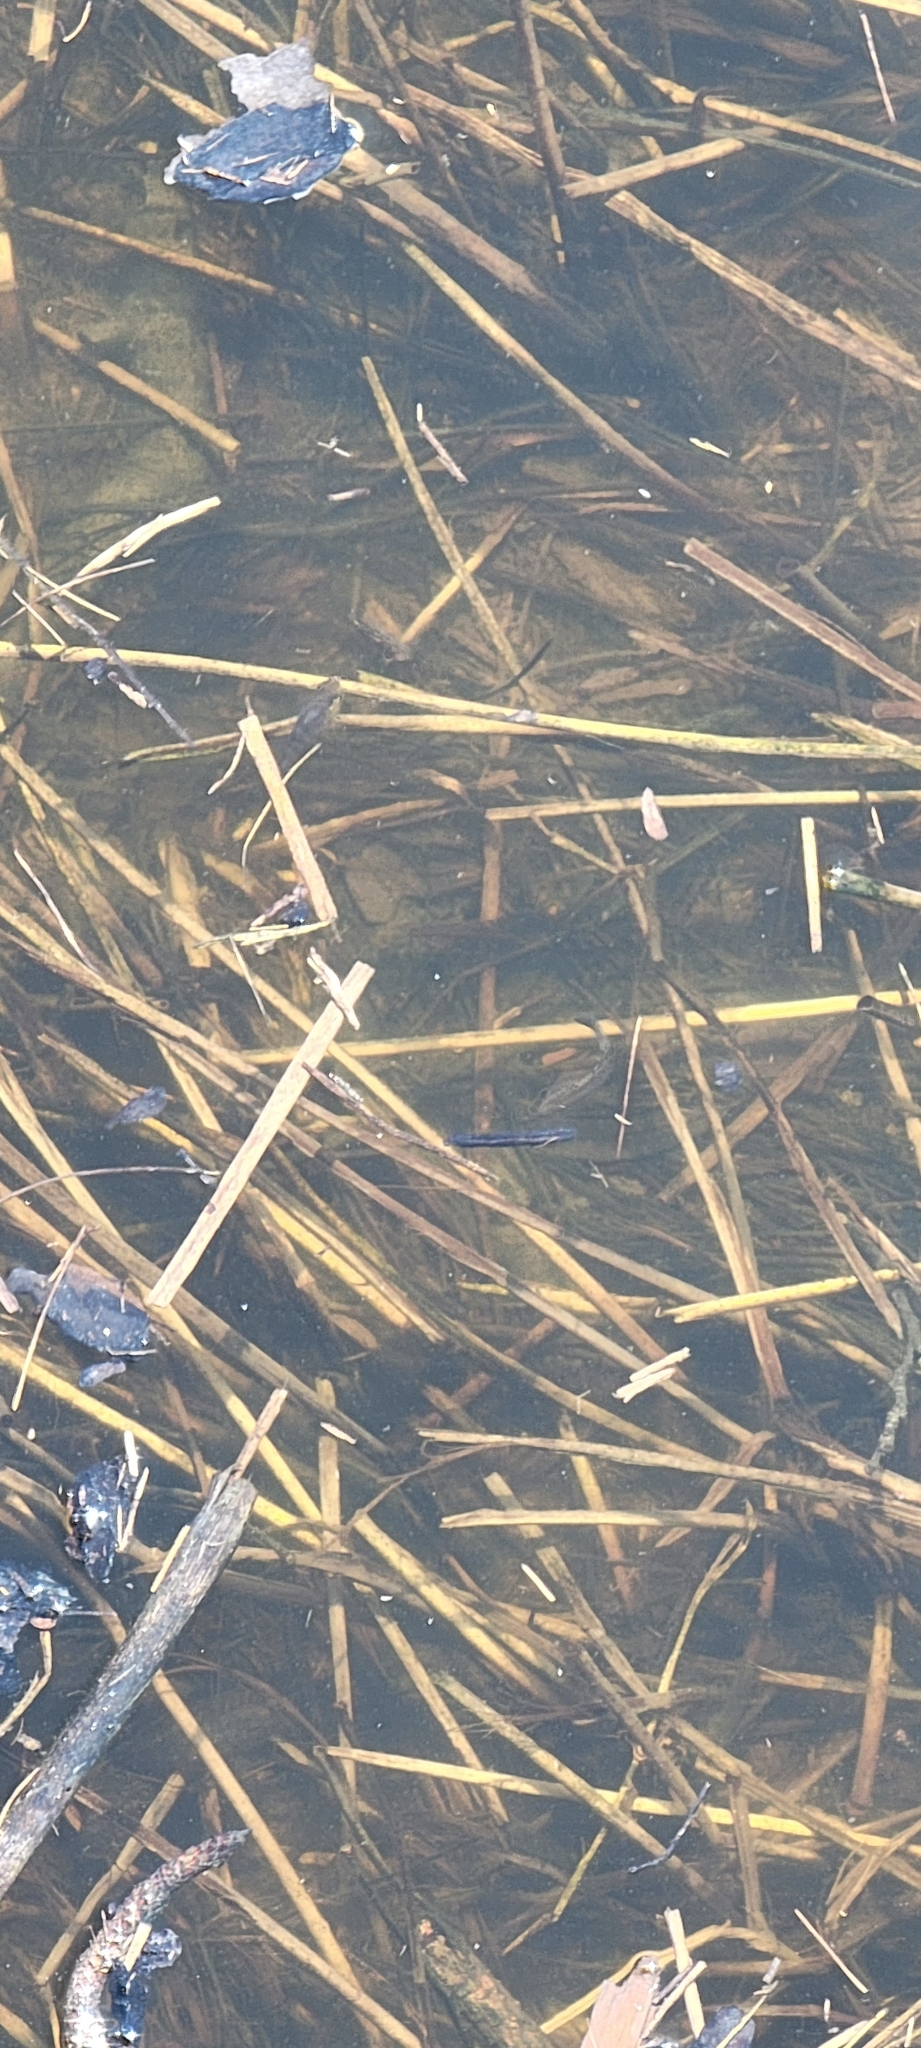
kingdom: Animalia
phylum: Arthropoda
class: Malacostraca
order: Decapoda
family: Portunidae
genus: Callinectes
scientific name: Callinectes sapidus
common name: Blue crab
